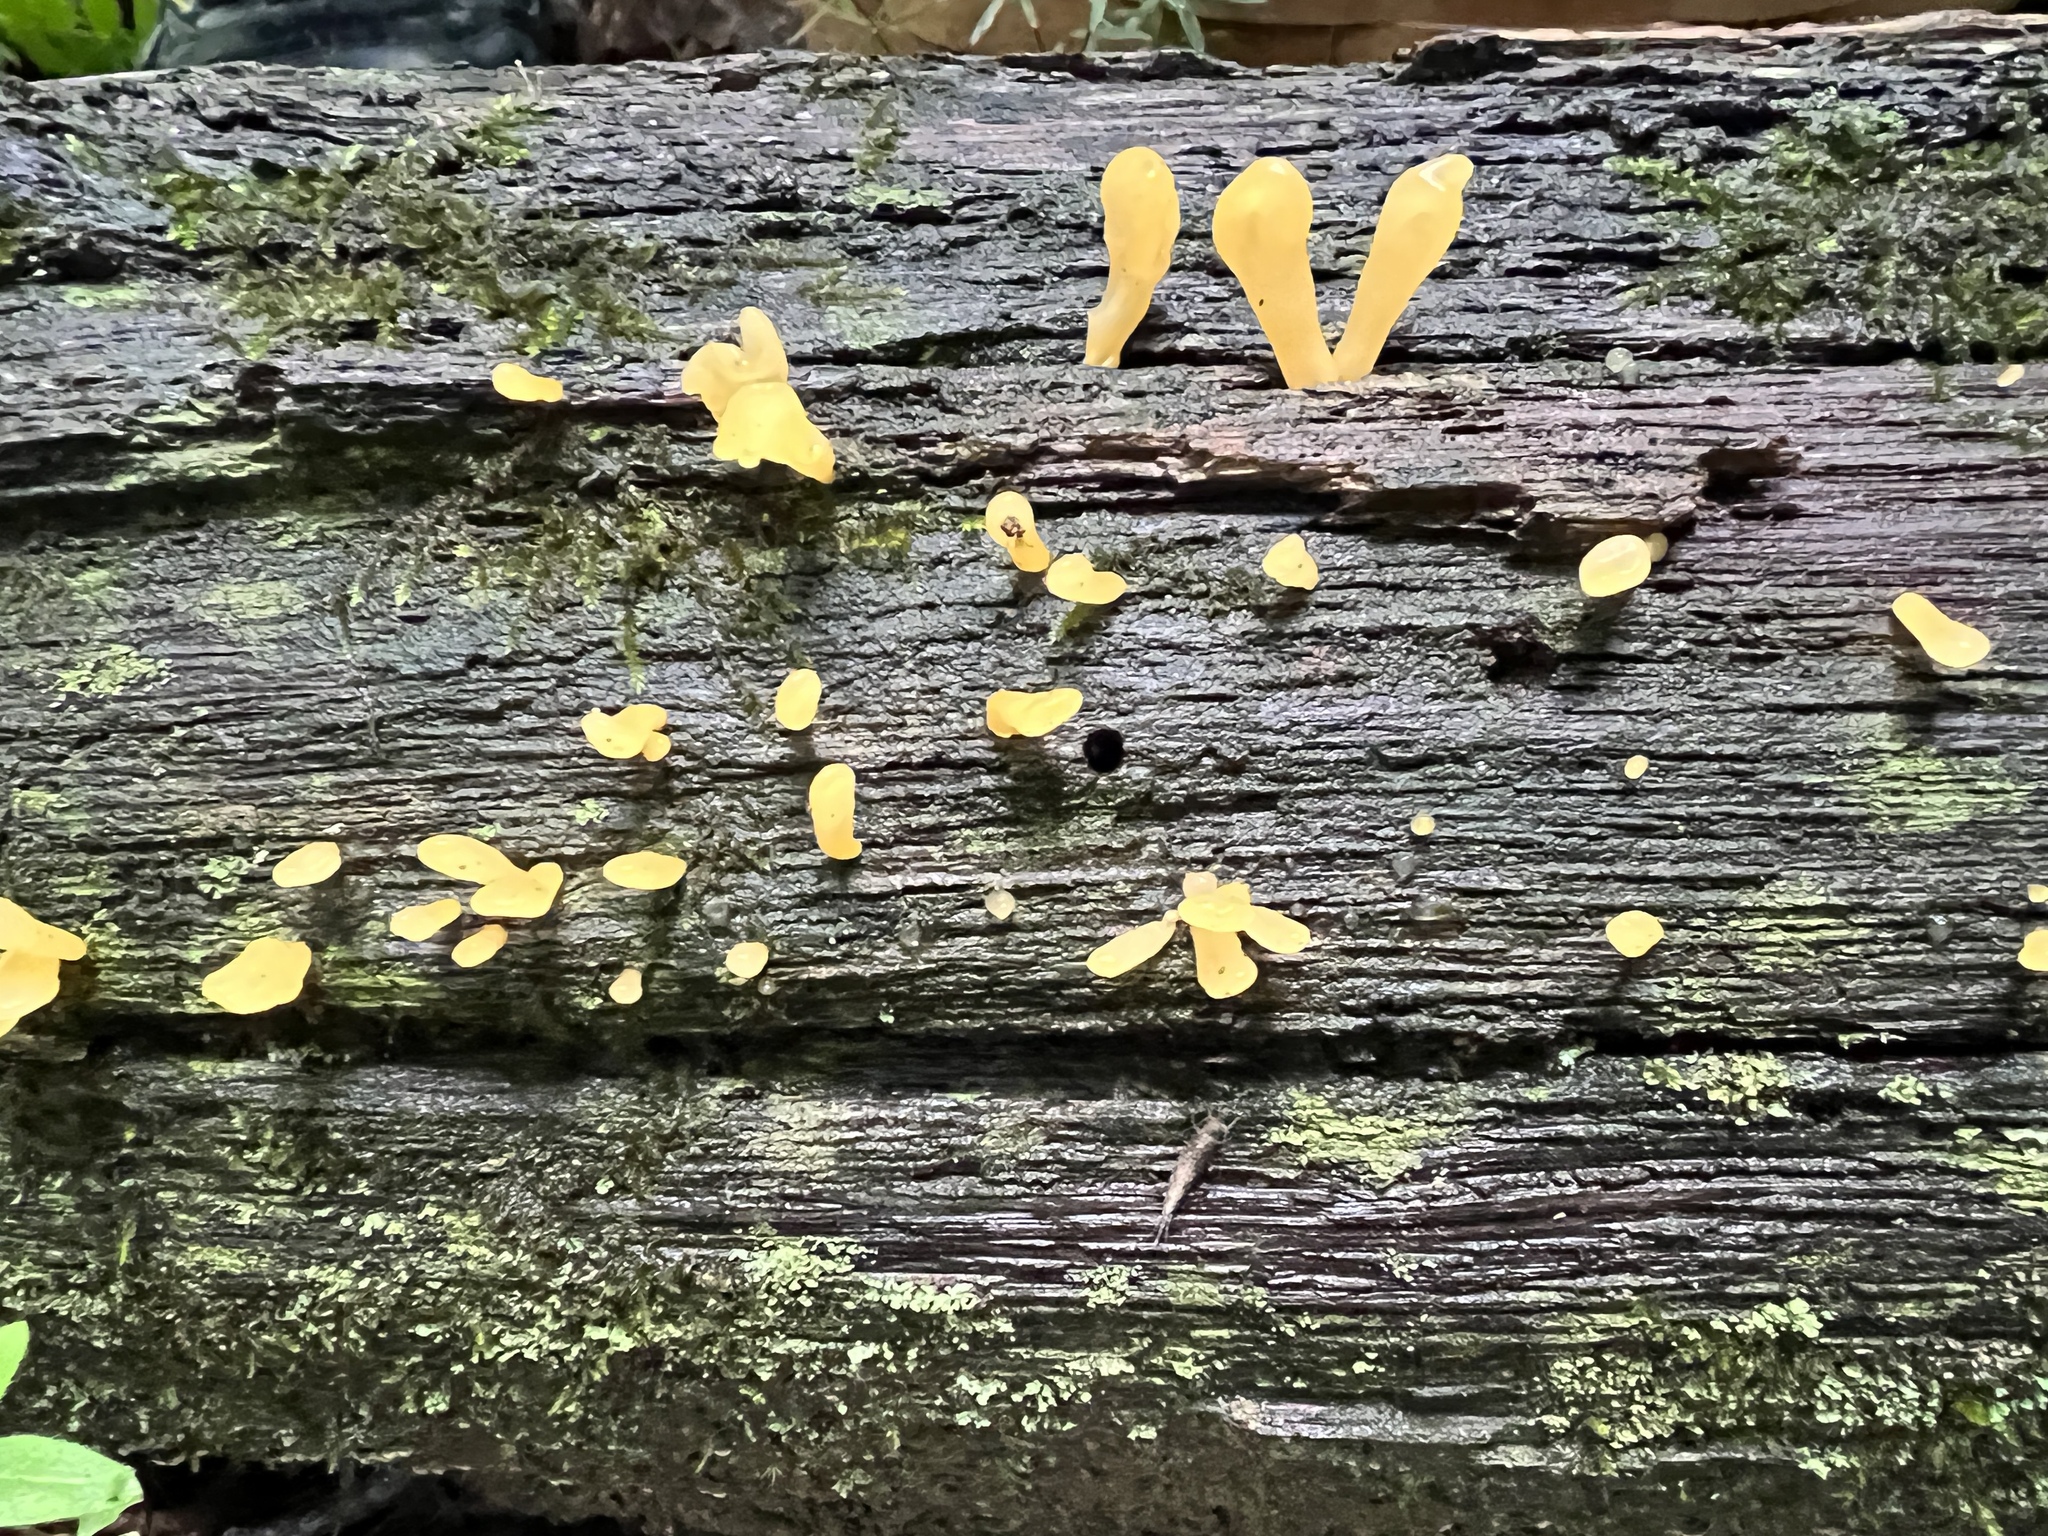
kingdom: Fungi
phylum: Basidiomycota
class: Dacrymycetes
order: Dacrymycetales
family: Dacrymycetaceae
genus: Dacrymyces
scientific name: Dacrymyces spathularius
